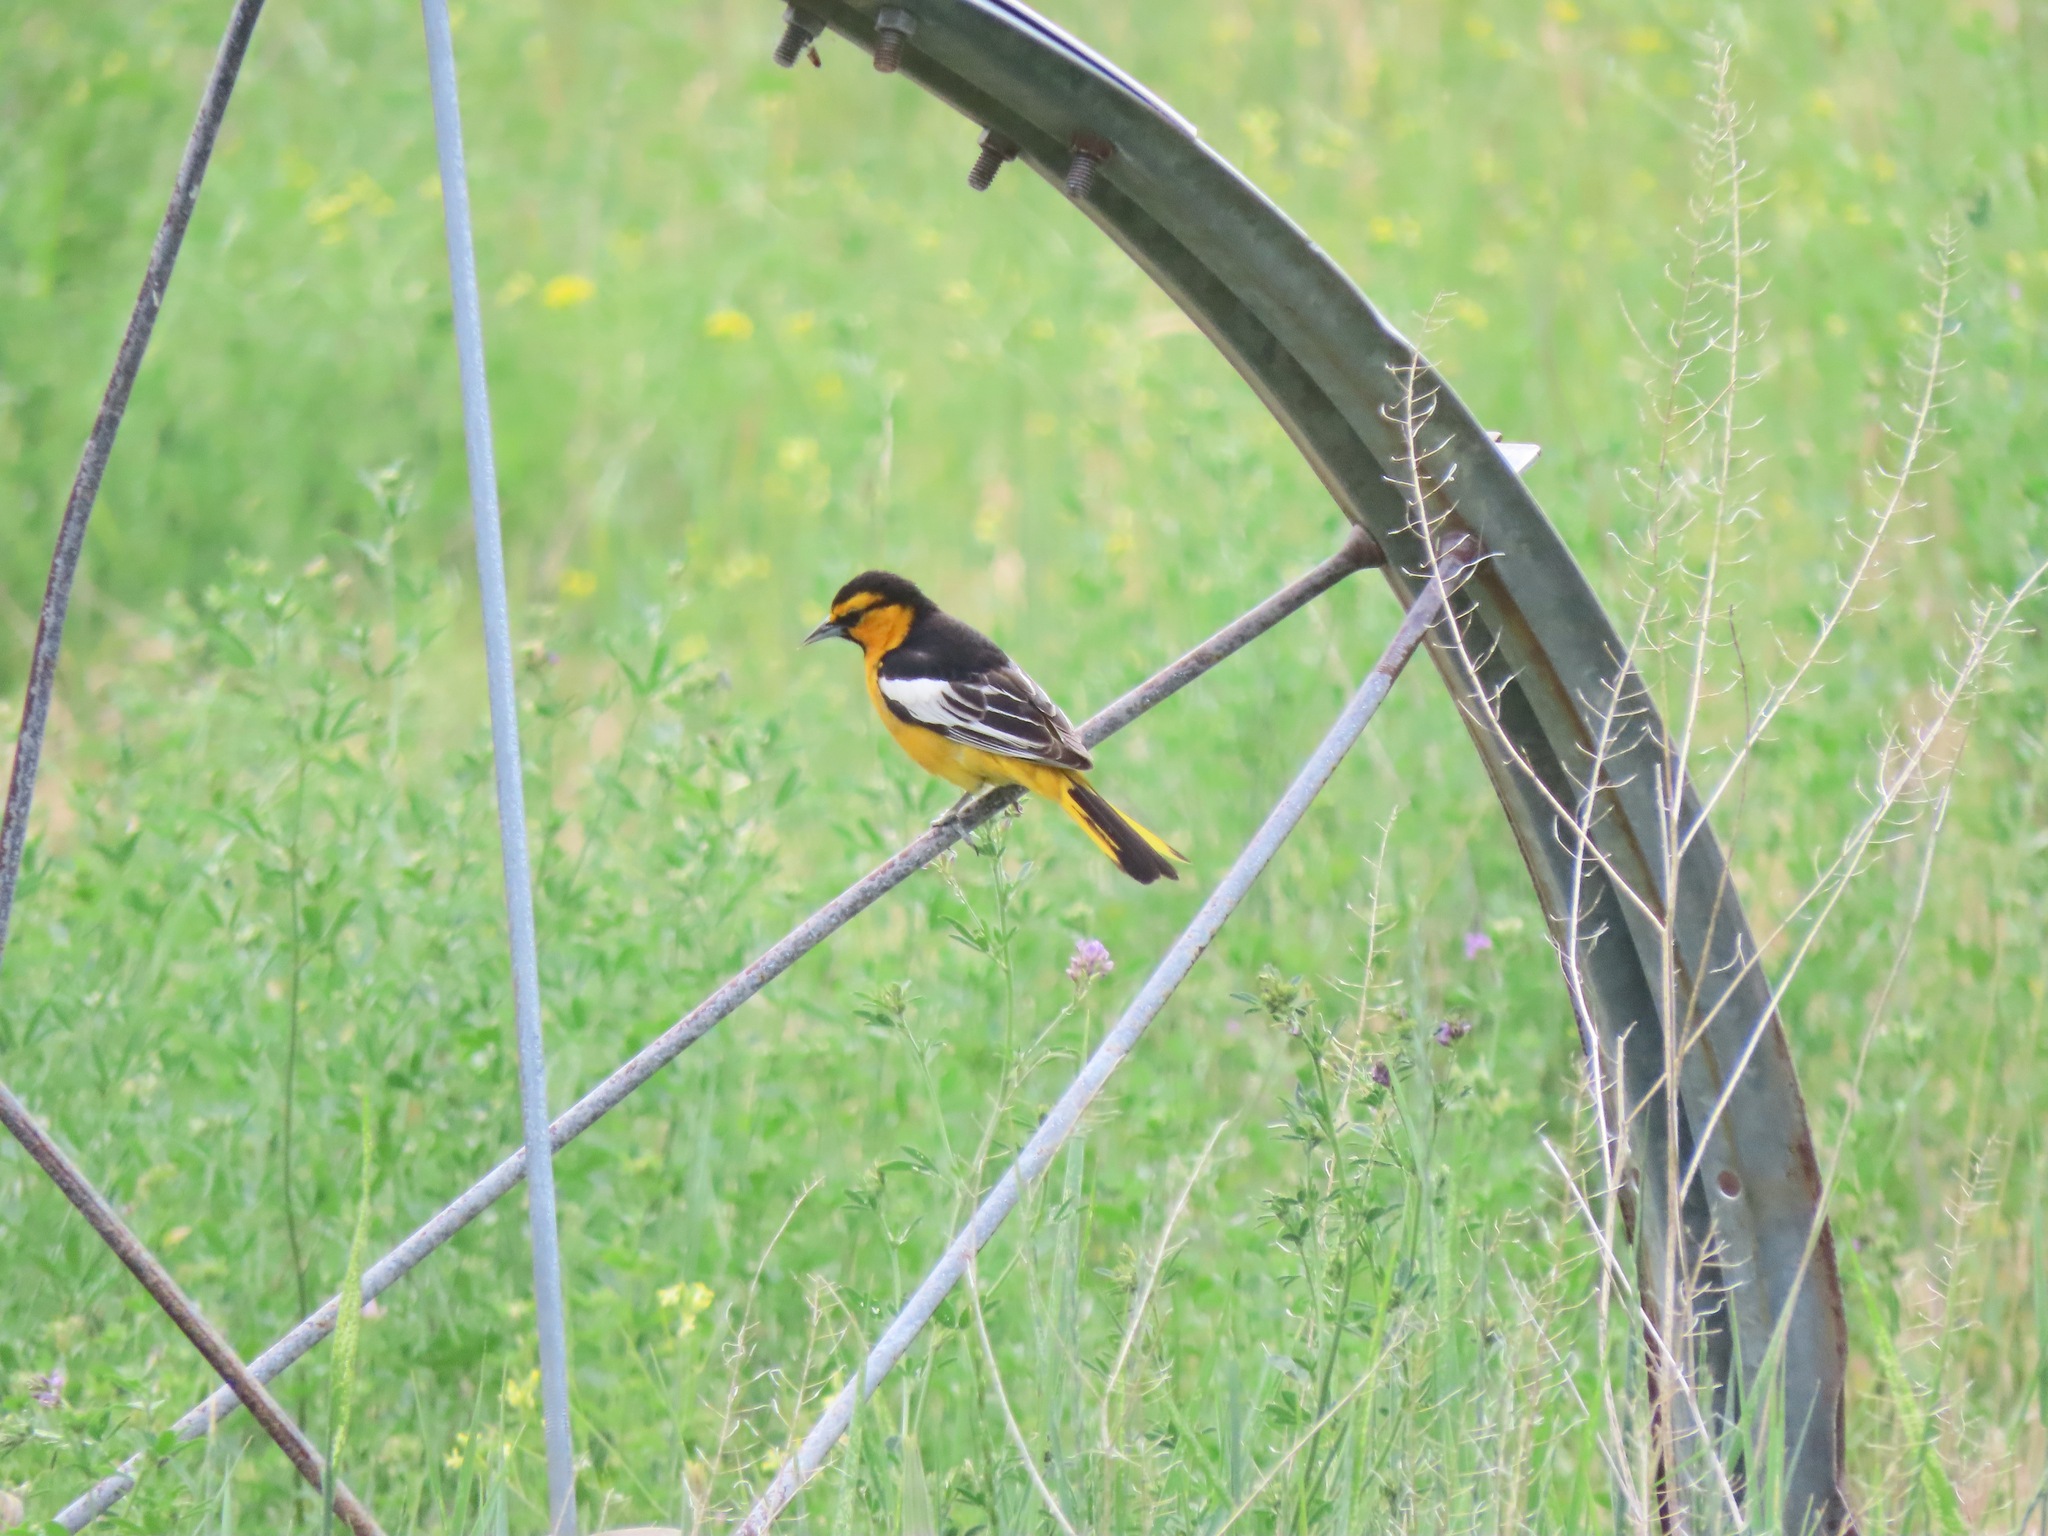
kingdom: Animalia
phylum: Chordata
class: Aves
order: Passeriformes
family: Icteridae
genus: Icterus
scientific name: Icterus bullockii
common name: Bullock's oriole
